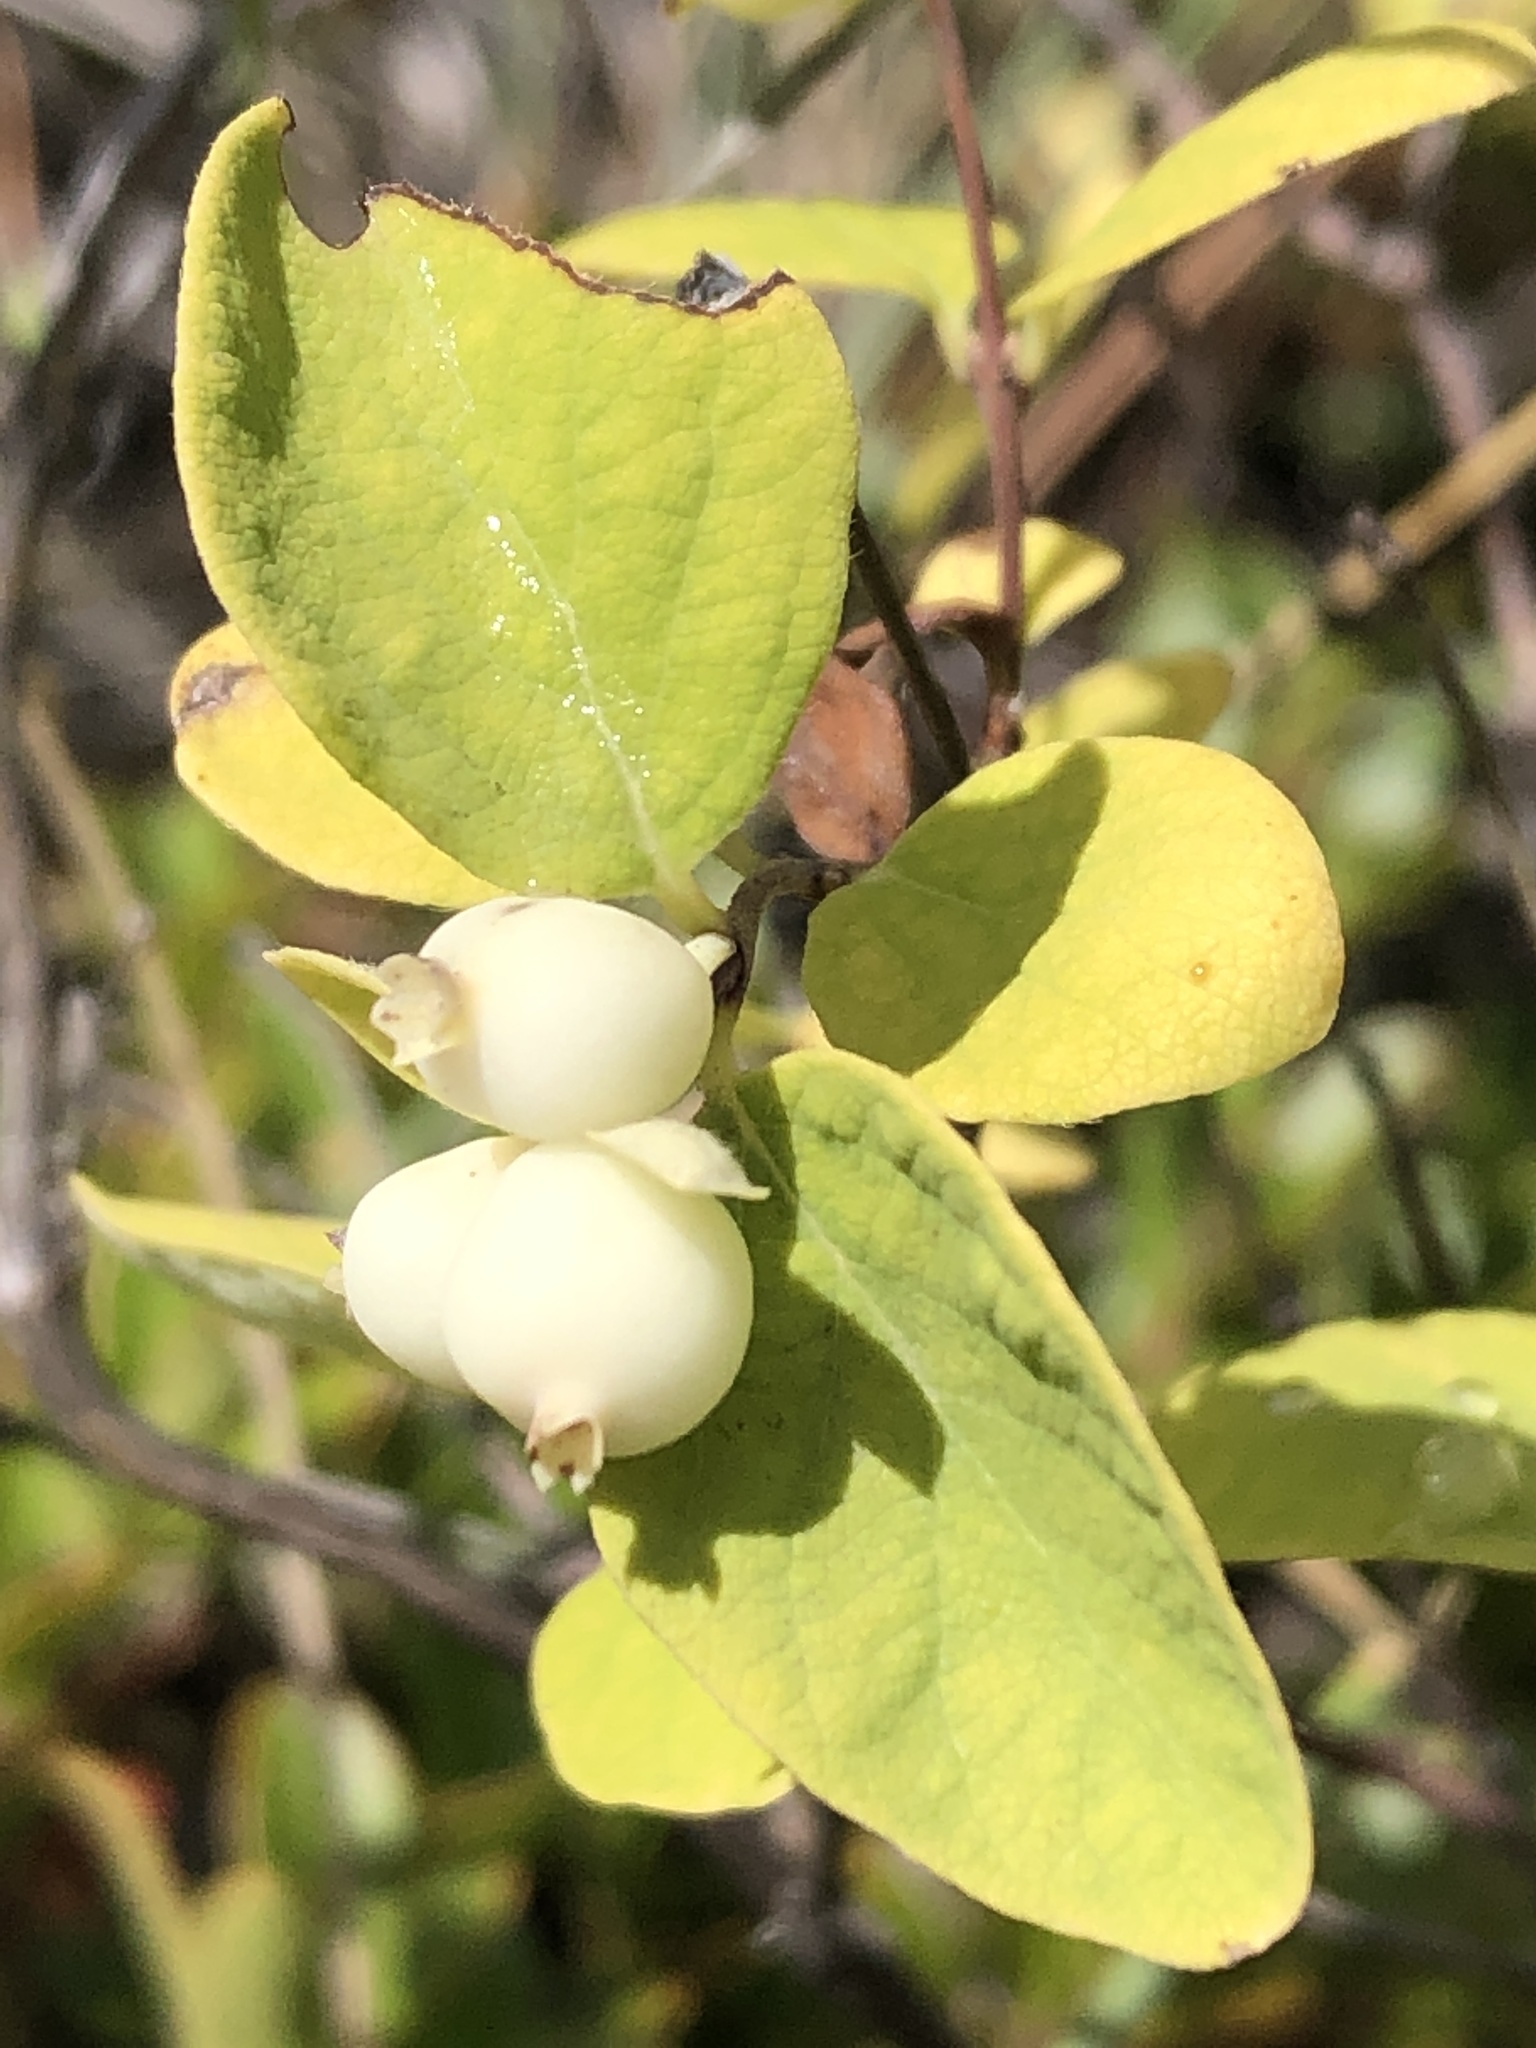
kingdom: Plantae
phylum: Tracheophyta
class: Magnoliopsida
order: Dipsacales
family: Caprifoliaceae
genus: Symphoricarpos
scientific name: Symphoricarpos albus
